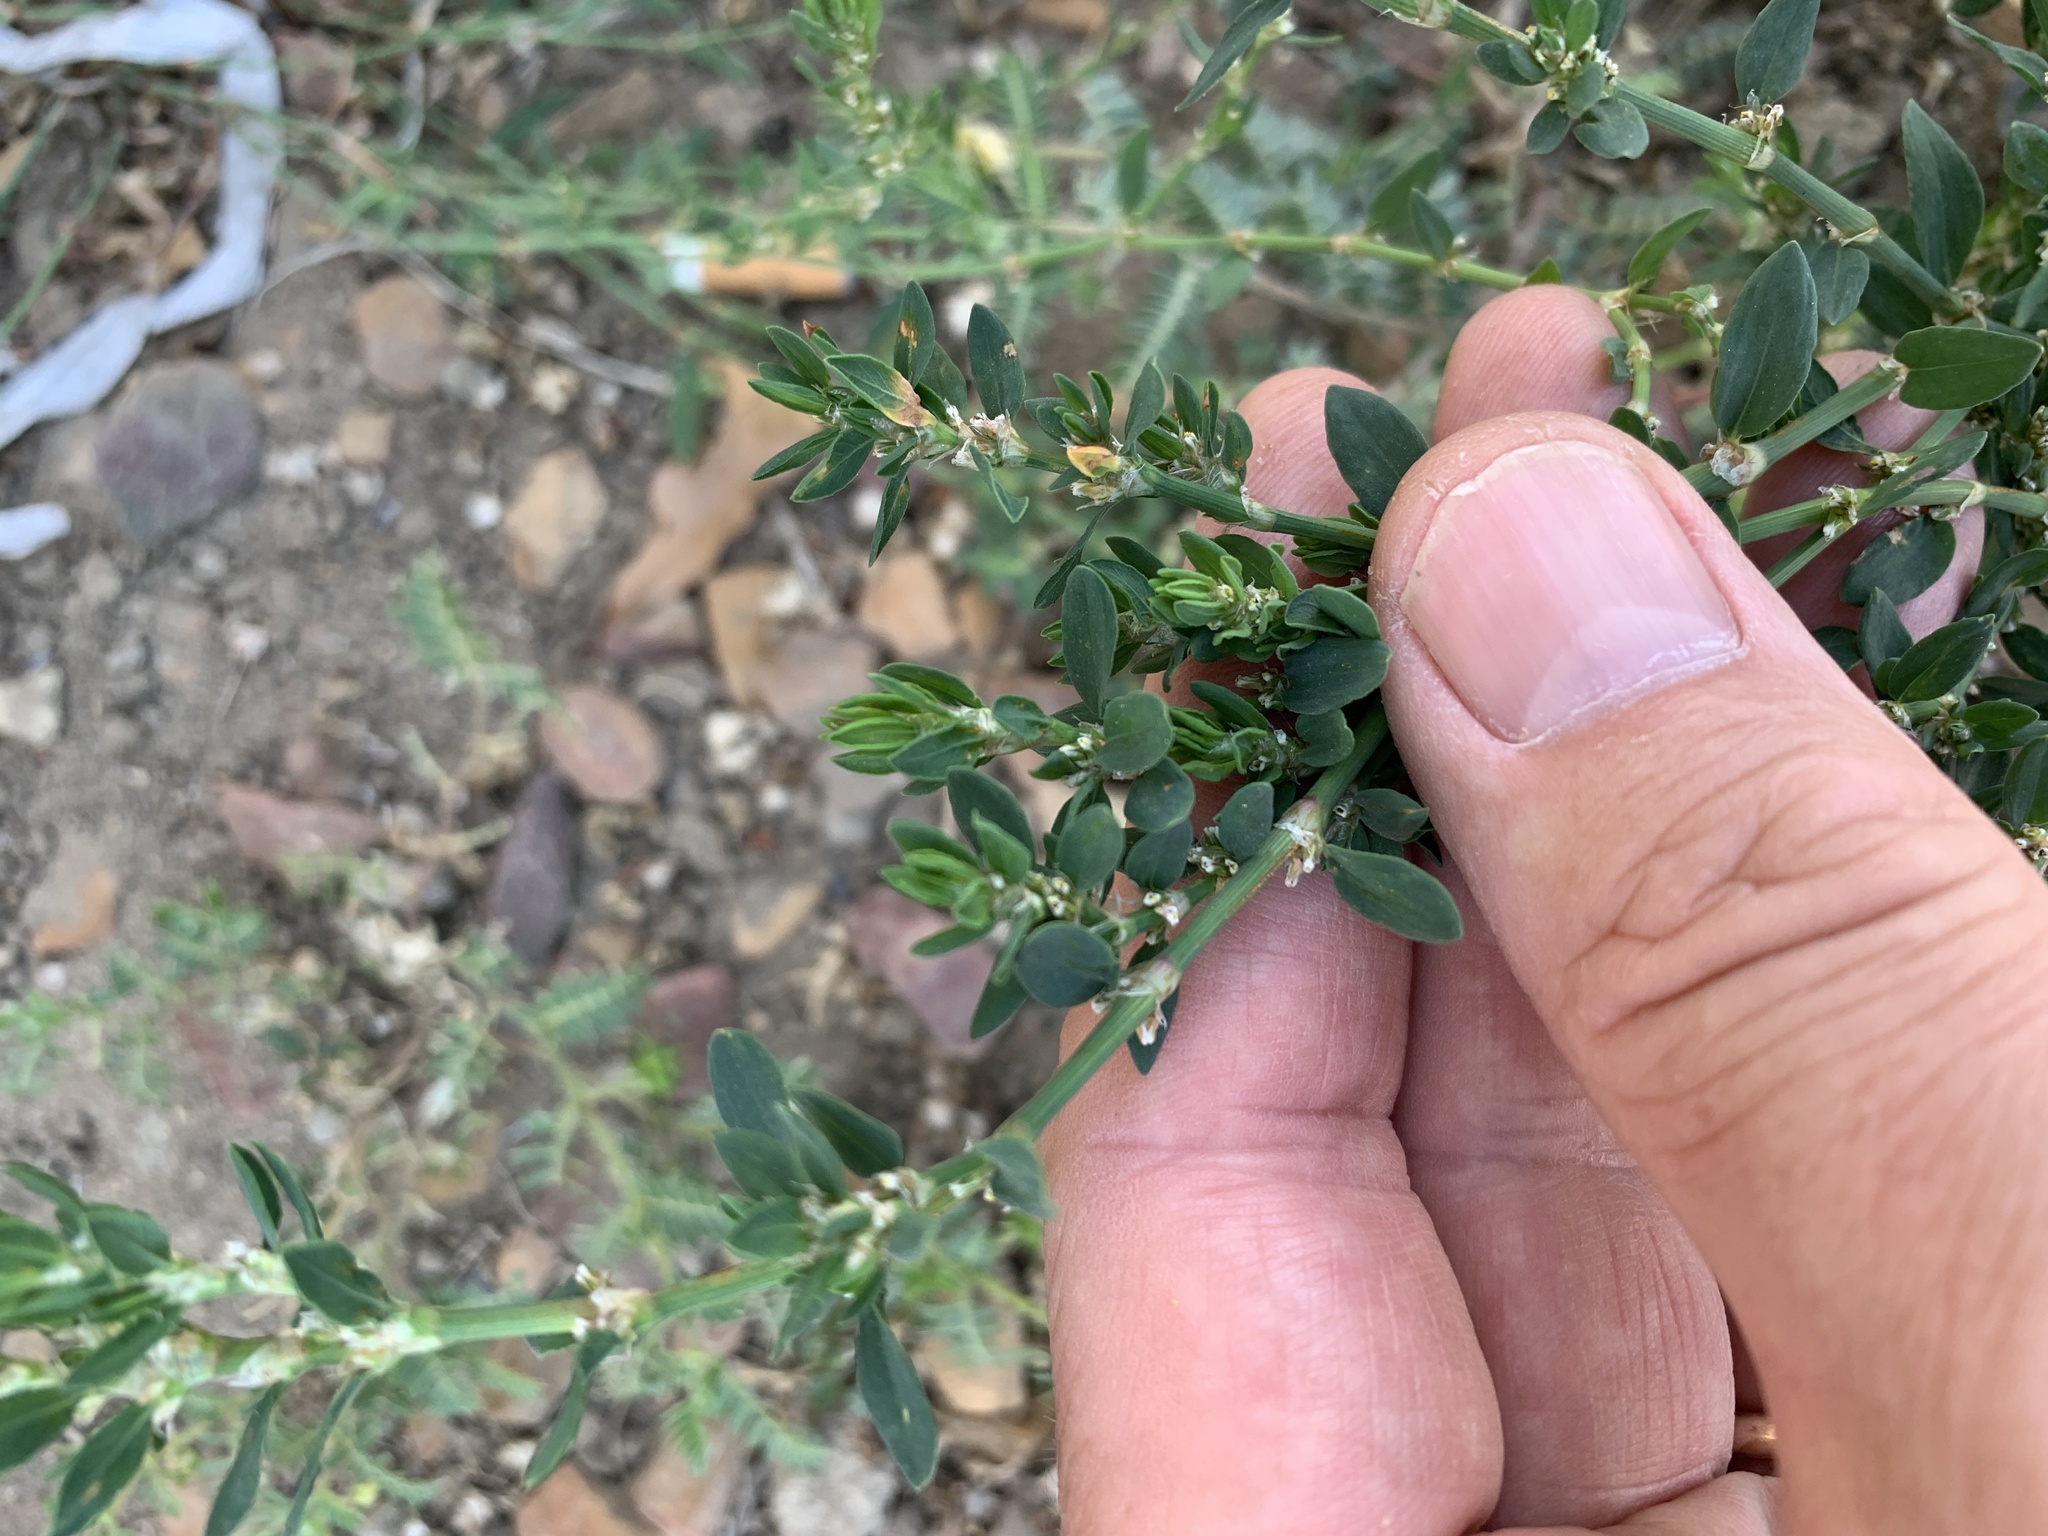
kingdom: Plantae
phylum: Tracheophyta
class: Magnoliopsida
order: Caryophyllales
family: Polygonaceae
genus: Polygonum
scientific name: Polygonum aviculare
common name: Prostrate knotweed
